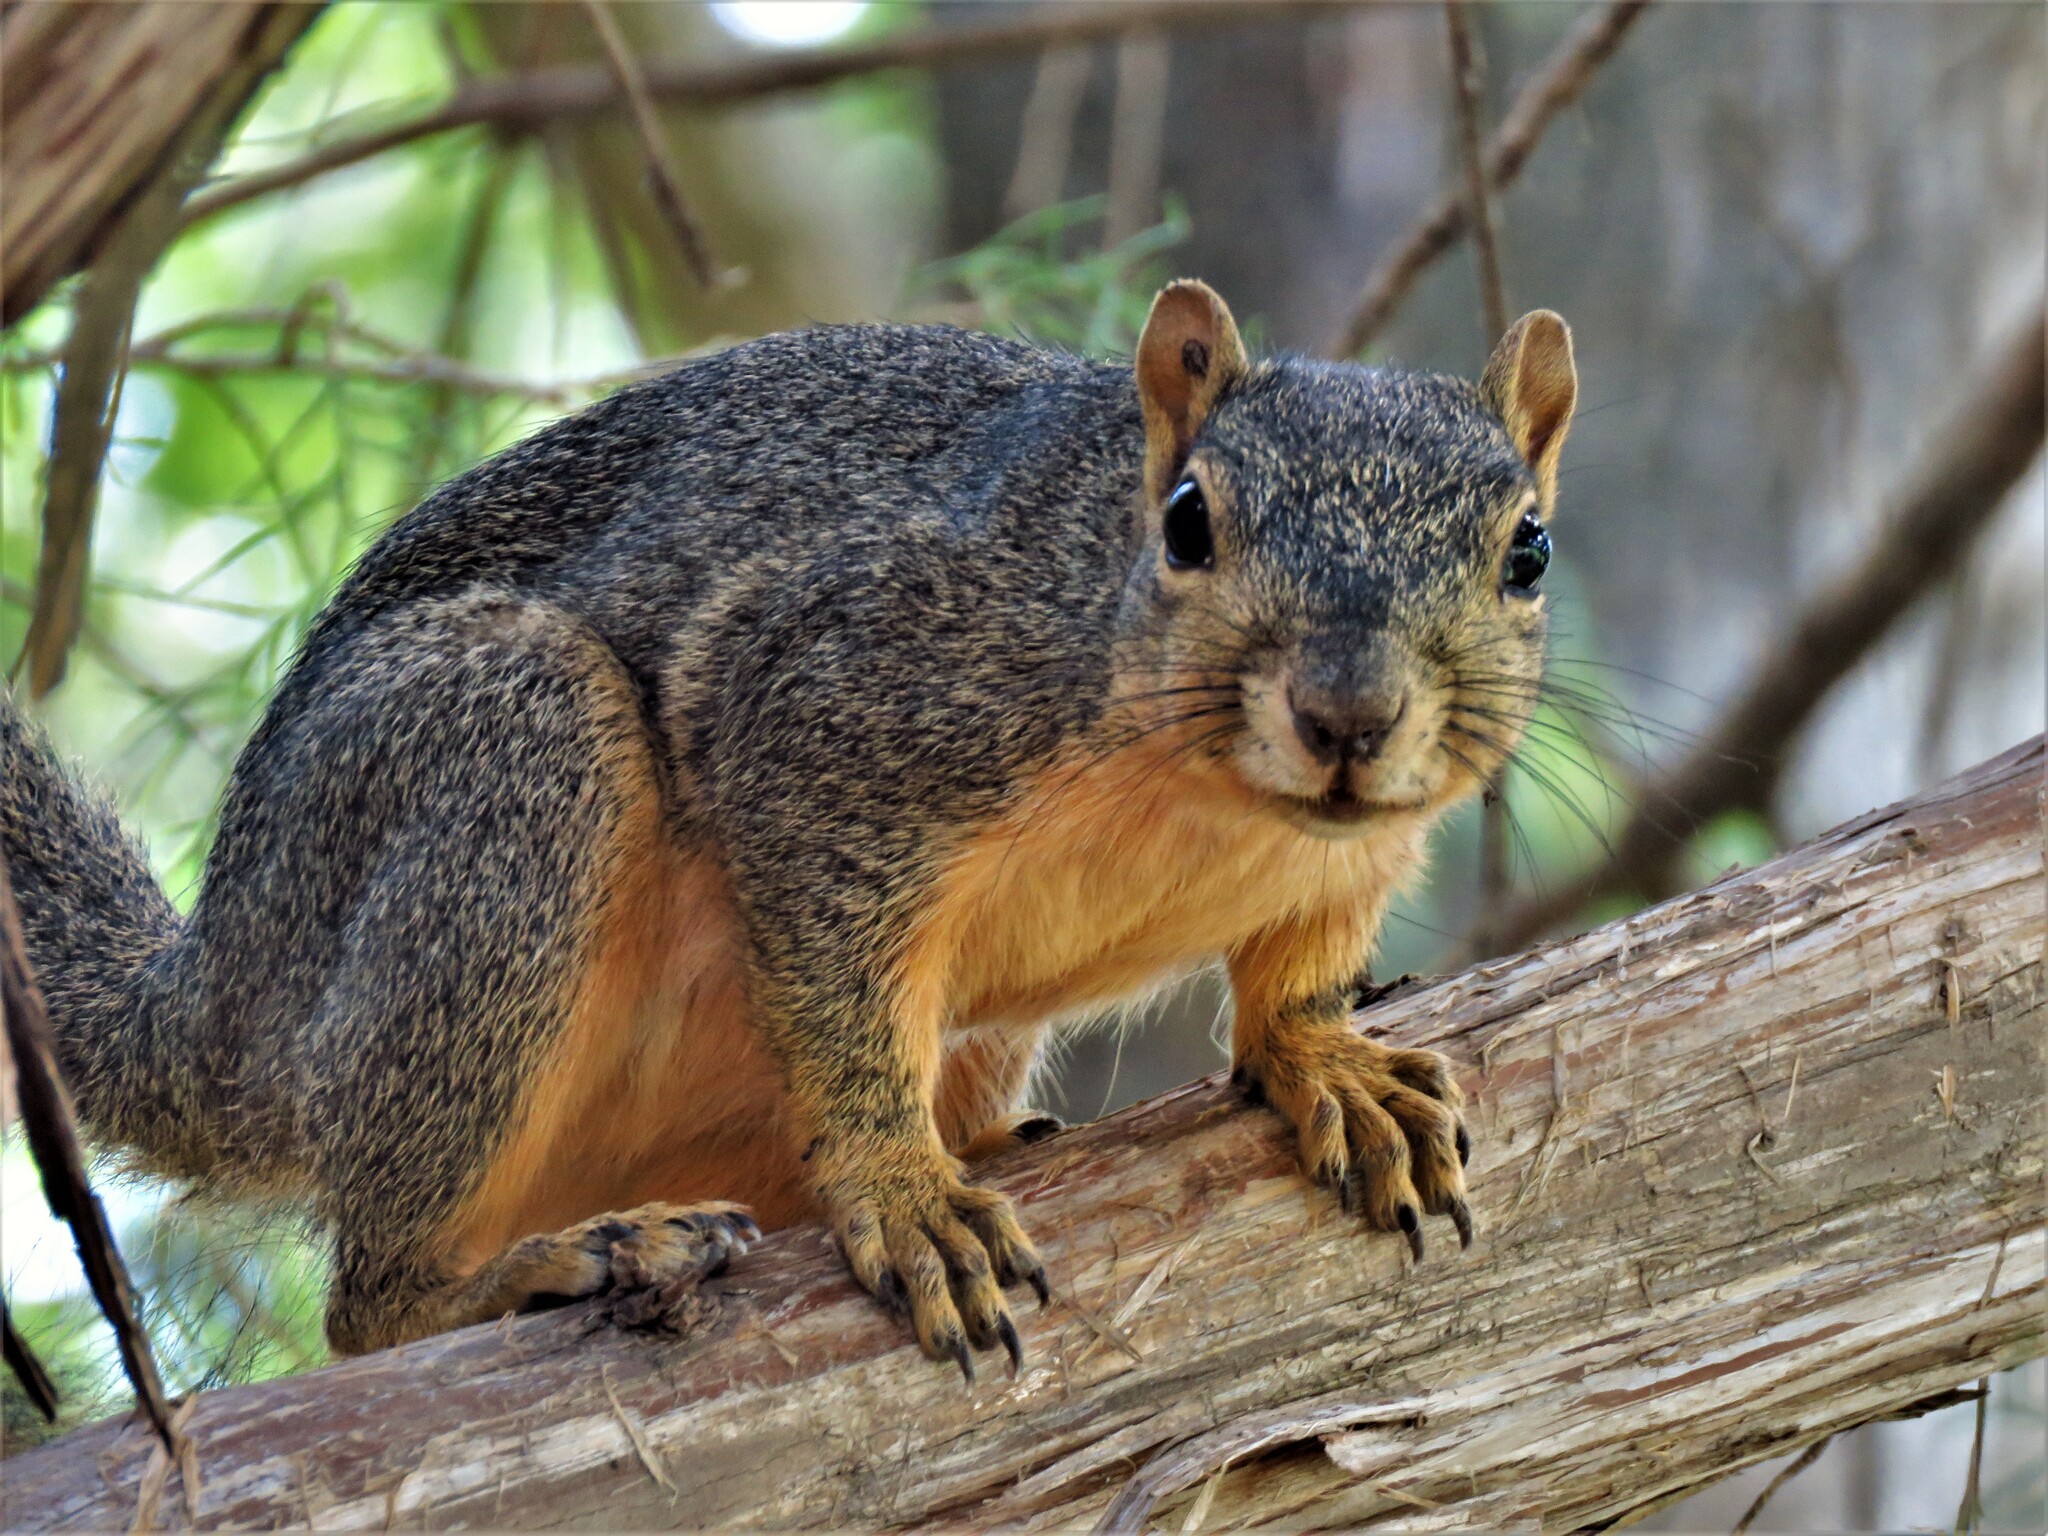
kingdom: Animalia
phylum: Chordata
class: Mammalia
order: Rodentia
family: Sciuridae
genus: Sciurus
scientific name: Sciurus niger
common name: Fox squirrel
